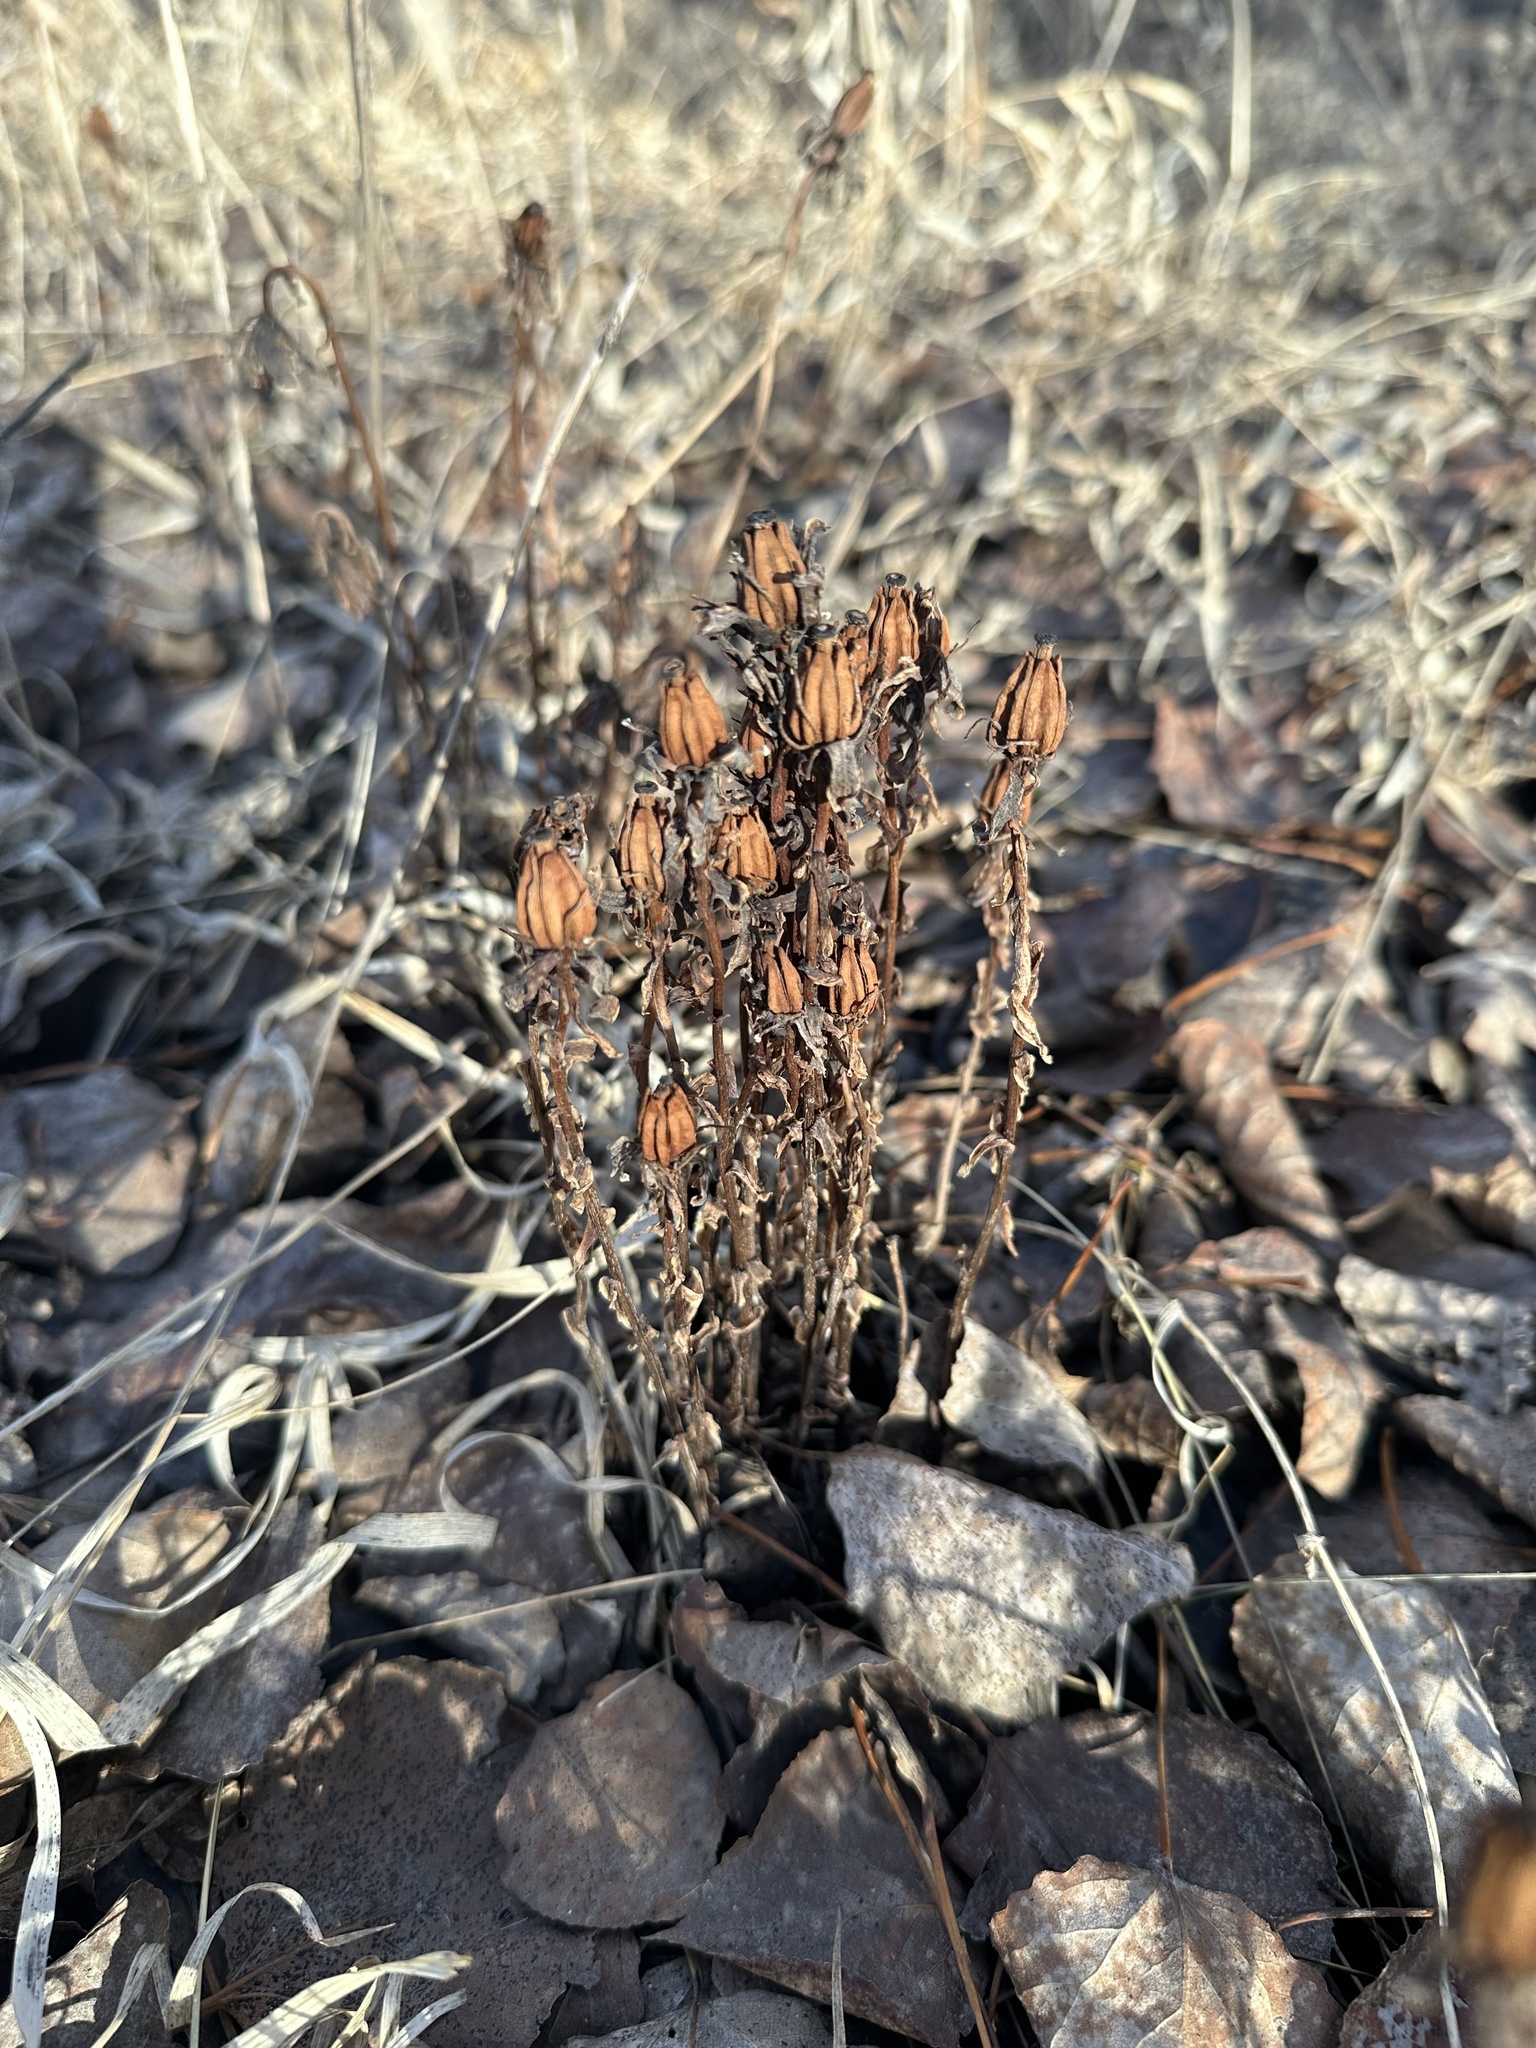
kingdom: Plantae
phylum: Tracheophyta
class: Magnoliopsida
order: Ericales
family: Ericaceae
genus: Monotropa
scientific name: Monotropa uniflora
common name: Convulsion root
